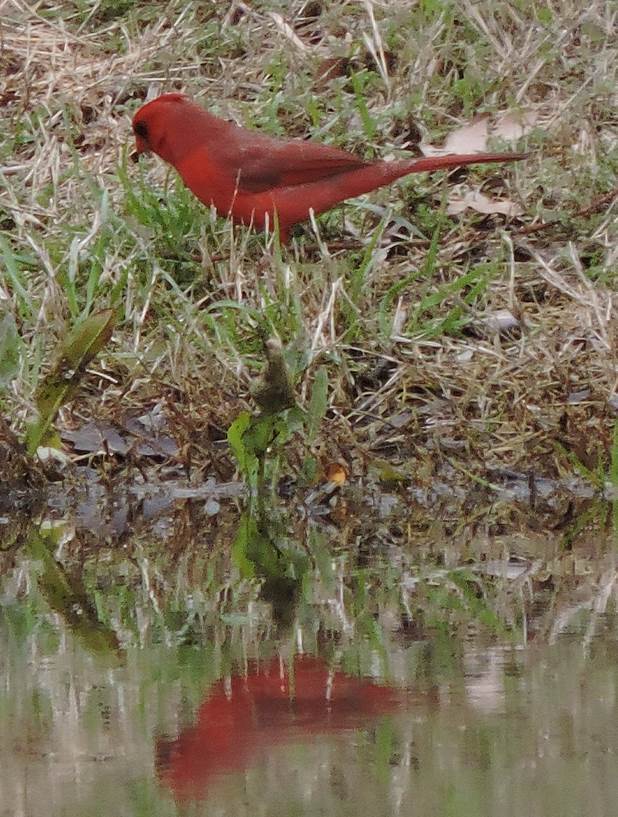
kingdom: Animalia
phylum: Chordata
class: Aves
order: Passeriformes
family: Cardinalidae
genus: Cardinalis
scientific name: Cardinalis cardinalis
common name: Northern cardinal
